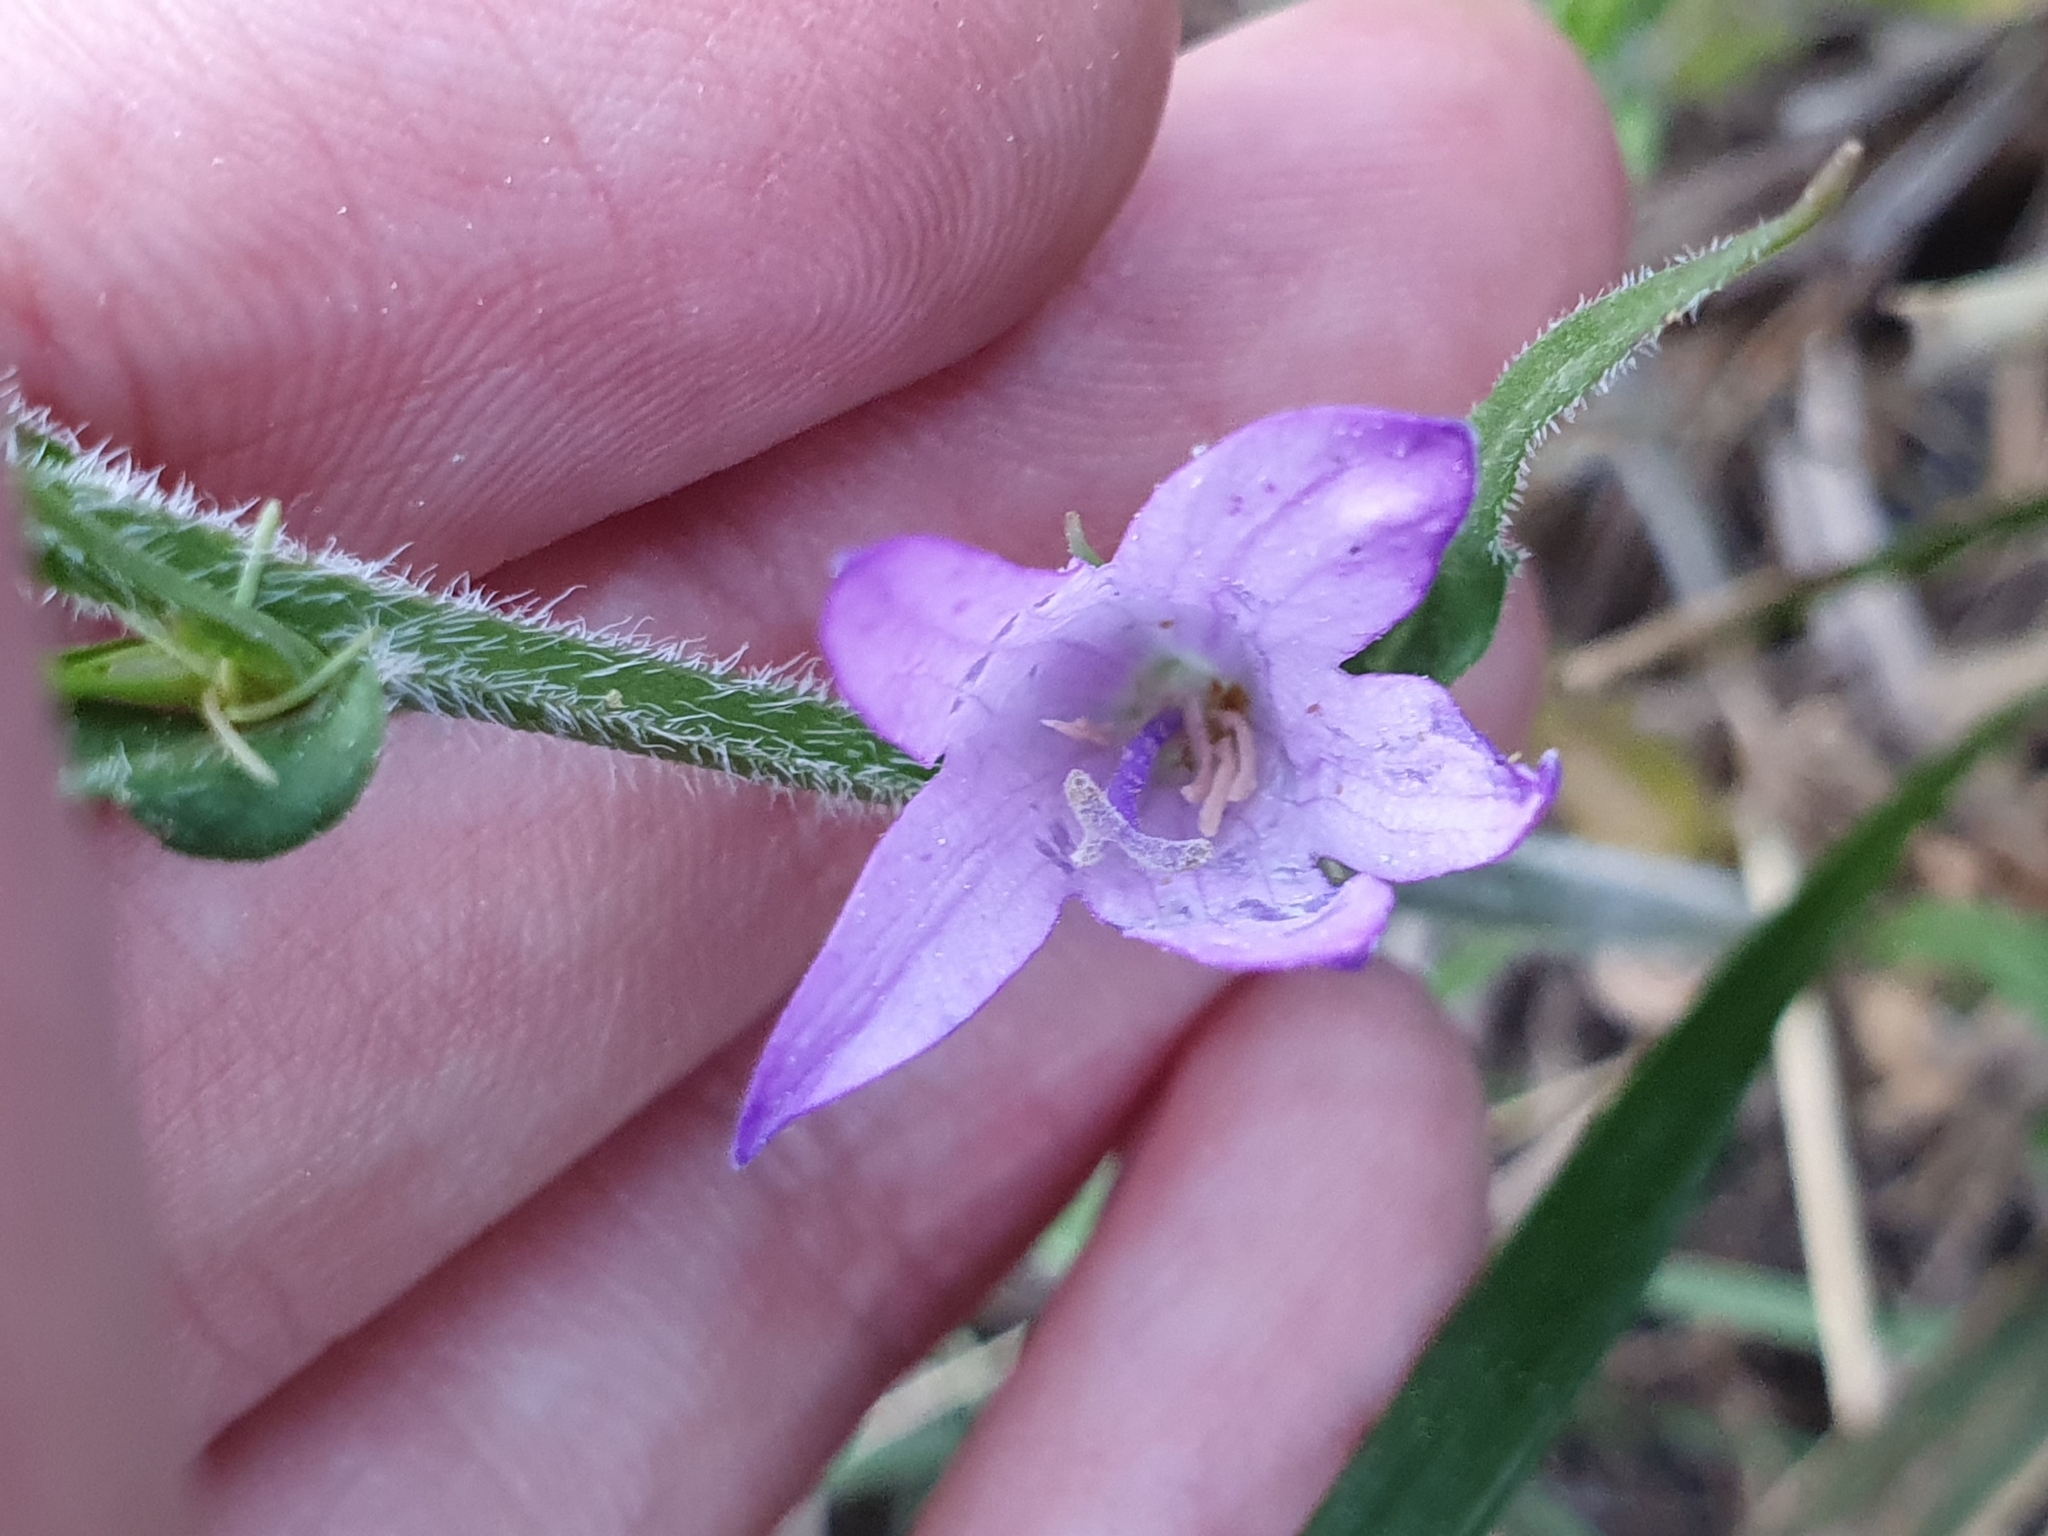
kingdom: Plantae
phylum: Tracheophyta
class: Magnoliopsida
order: Asterales
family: Campanulaceae
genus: Campanula
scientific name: Campanula rapunculus
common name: Rampion bellflower
